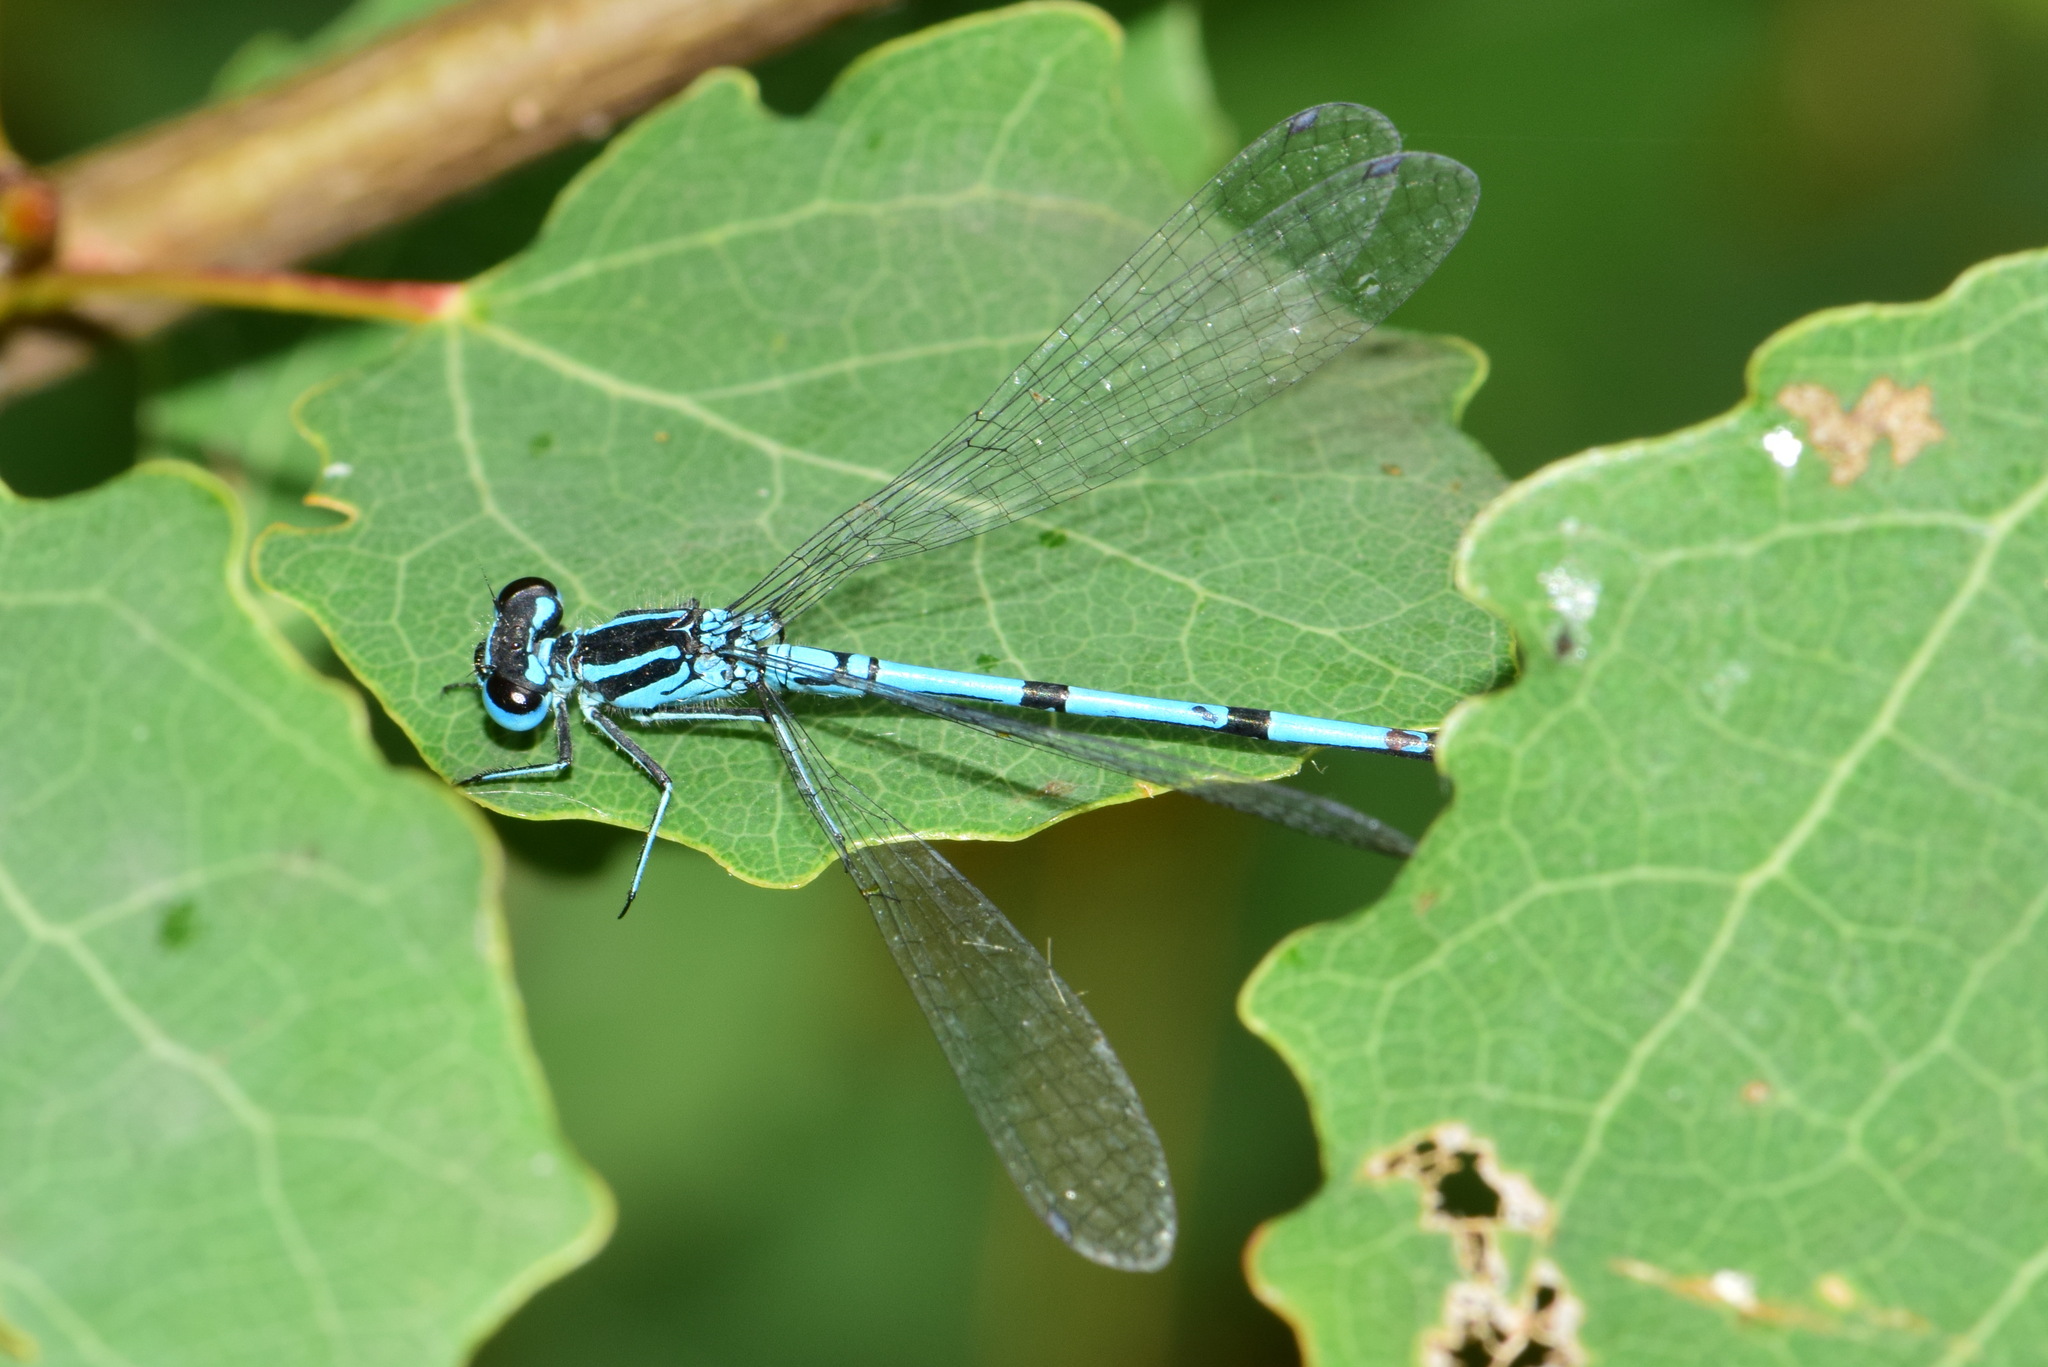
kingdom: Animalia
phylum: Arthropoda
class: Insecta
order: Odonata
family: Coenagrionidae
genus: Coenagrion
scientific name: Coenagrion puella
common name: Azure damselfly
